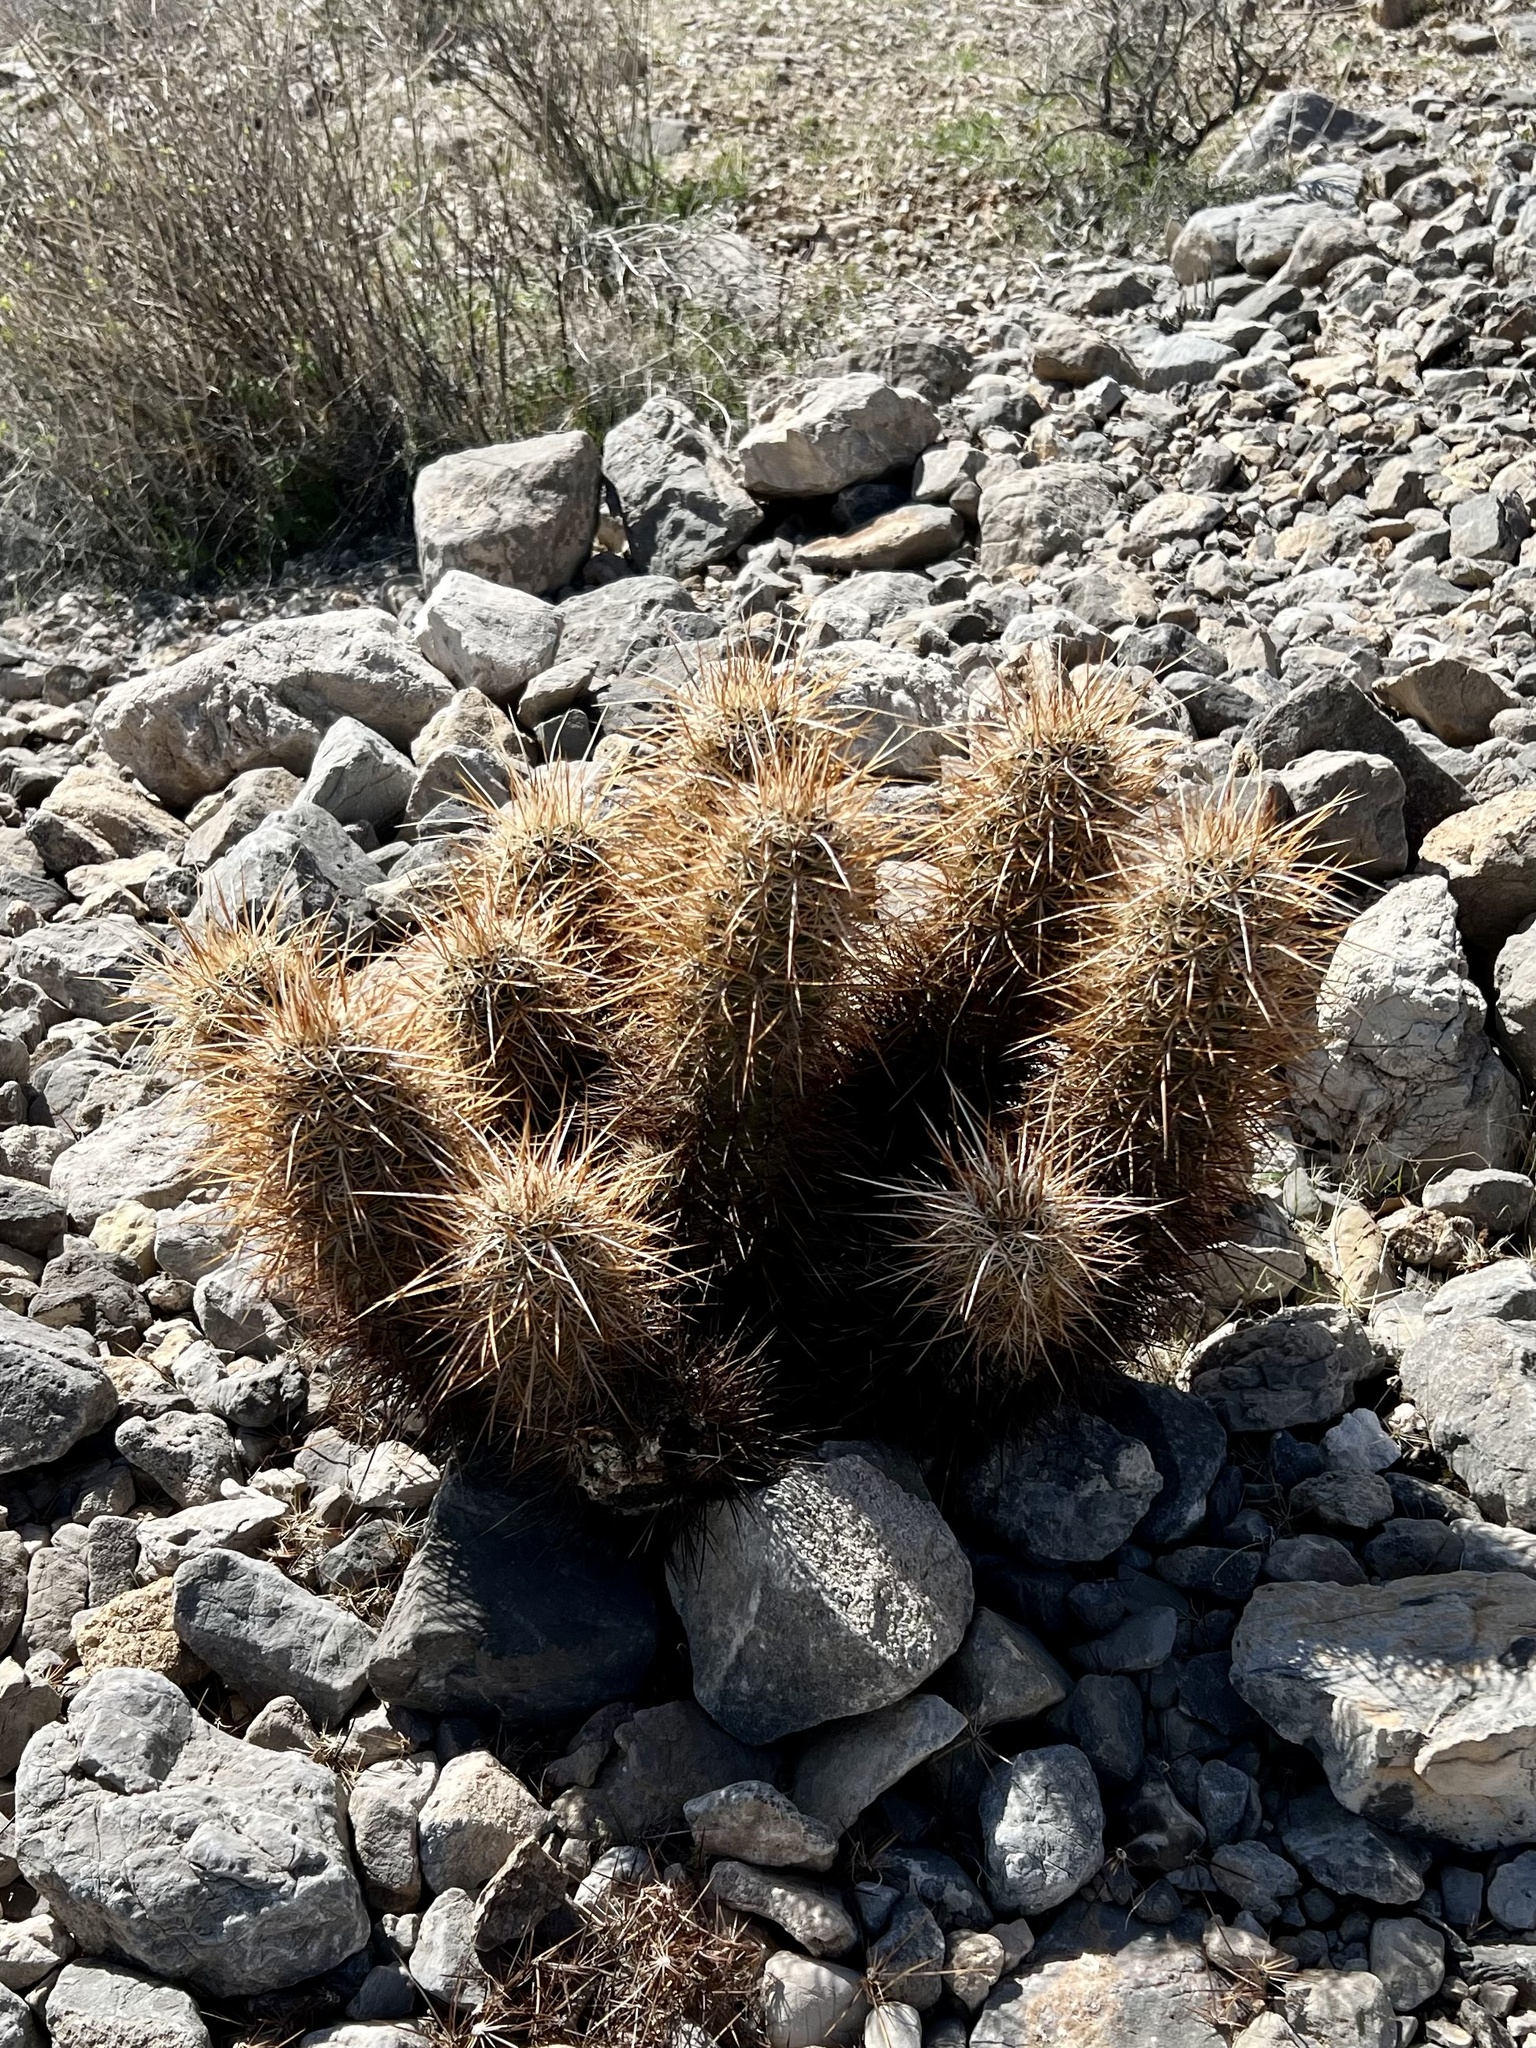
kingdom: Plantae
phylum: Tracheophyta
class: Magnoliopsida
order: Caryophyllales
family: Cactaceae
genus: Echinocereus
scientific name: Echinocereus engelmannii
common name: Engelmann's hedgehog cactus
